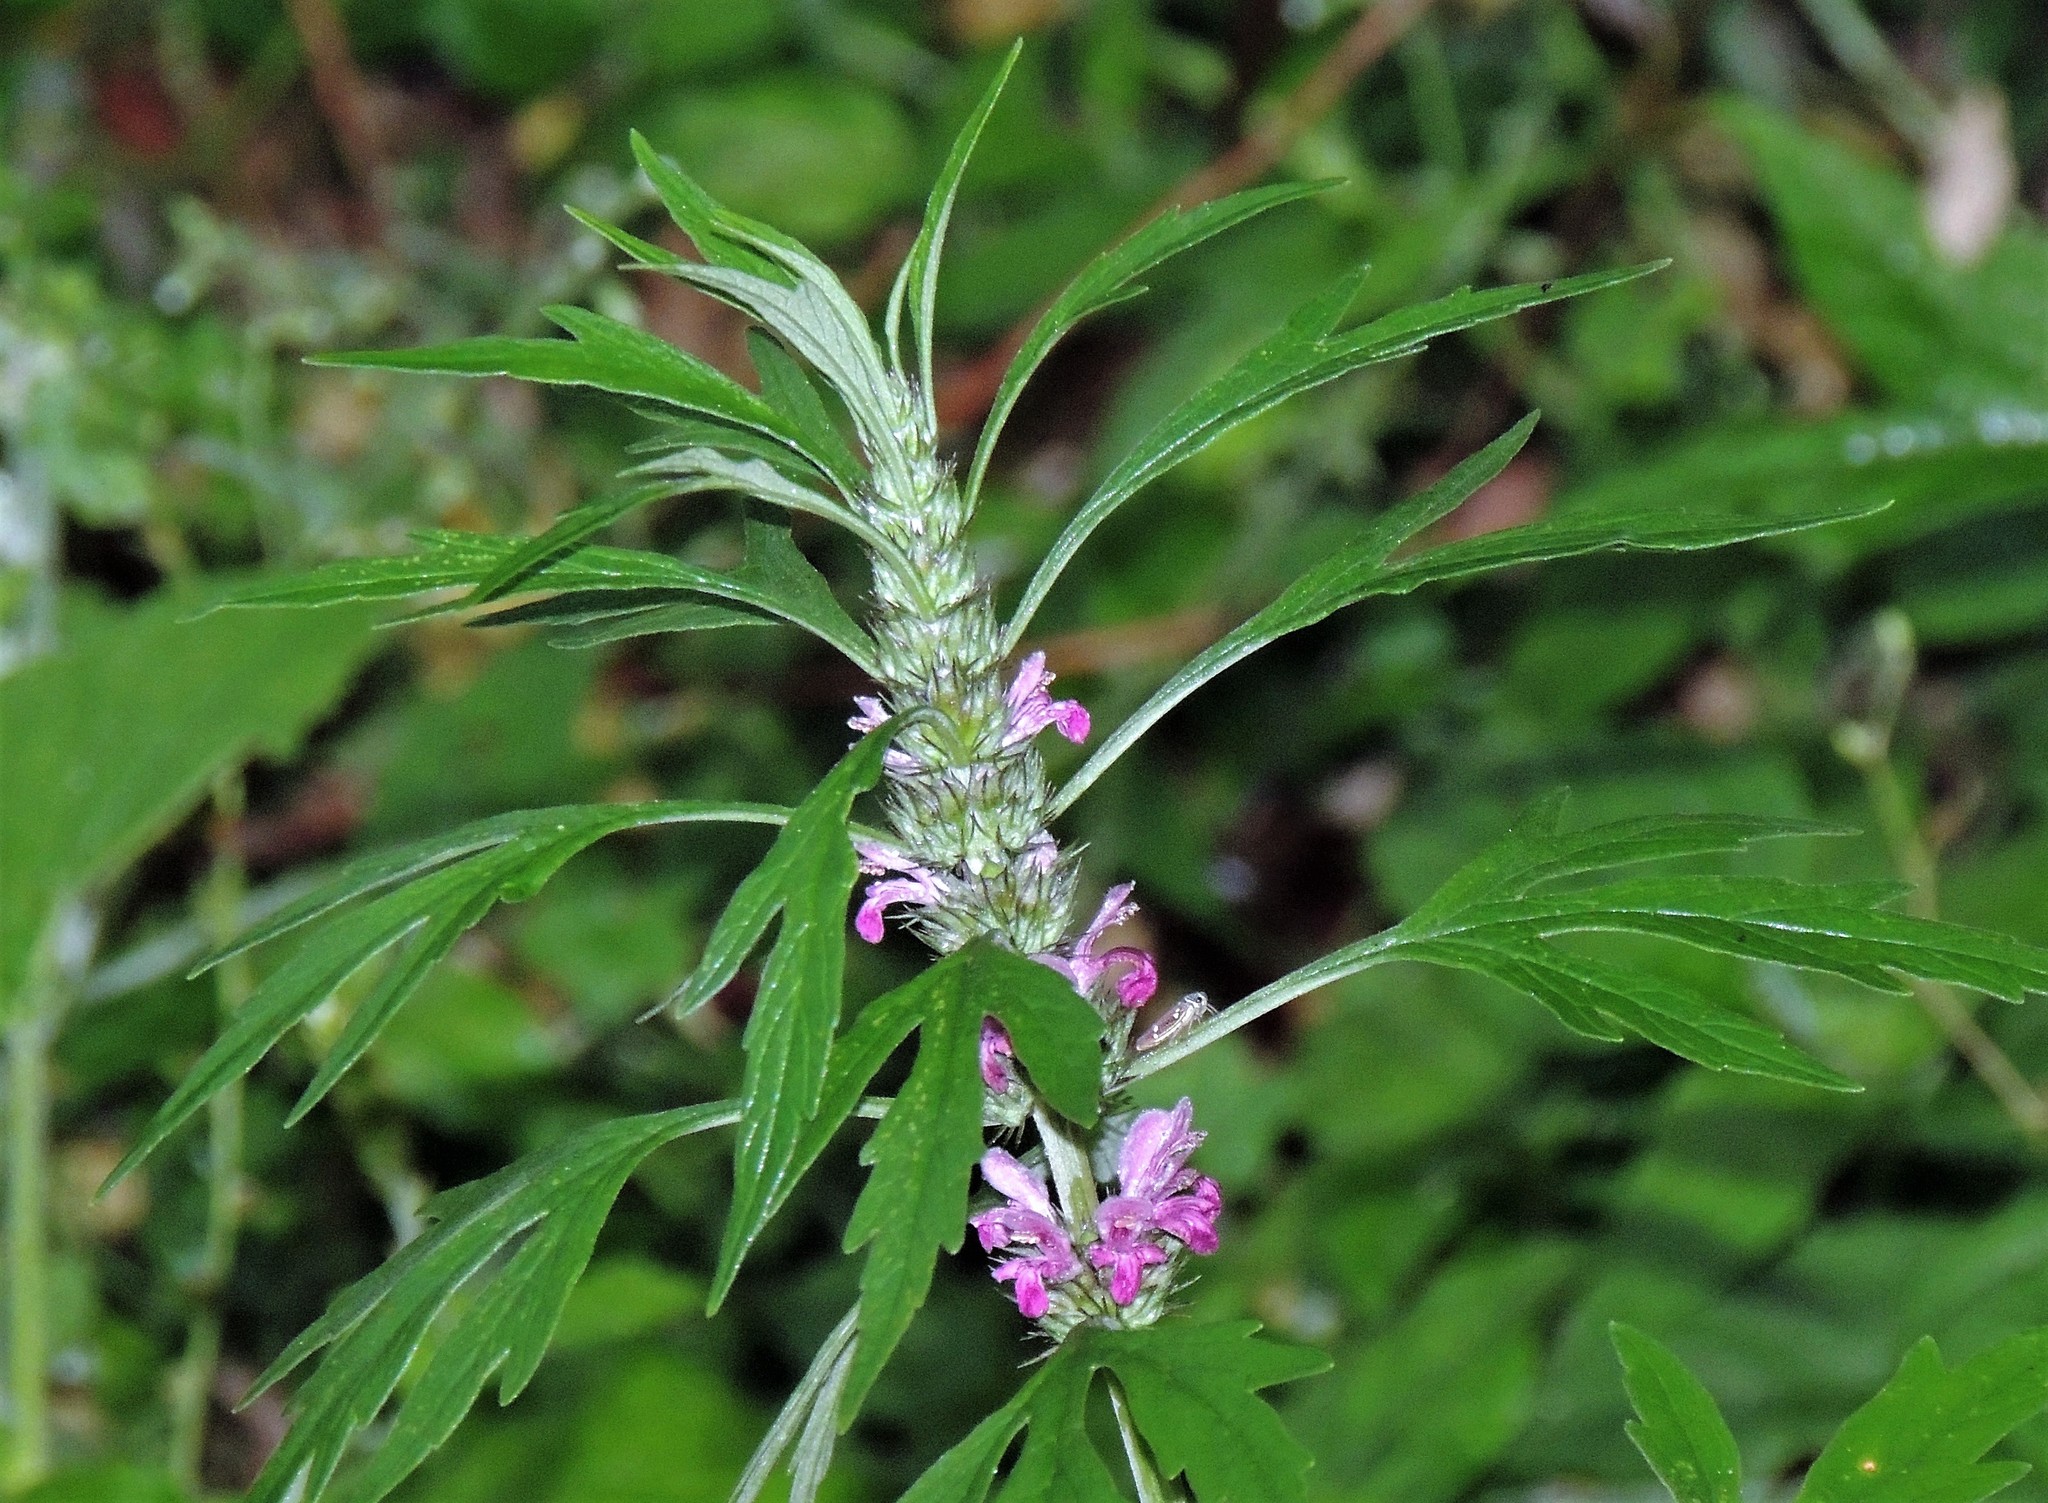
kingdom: Plantae
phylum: Tracheophyta
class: Magnoliopsida
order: Lamiales
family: Lamiaceae
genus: Leonurus
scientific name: Leonurus japonicus
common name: Honeyweed
